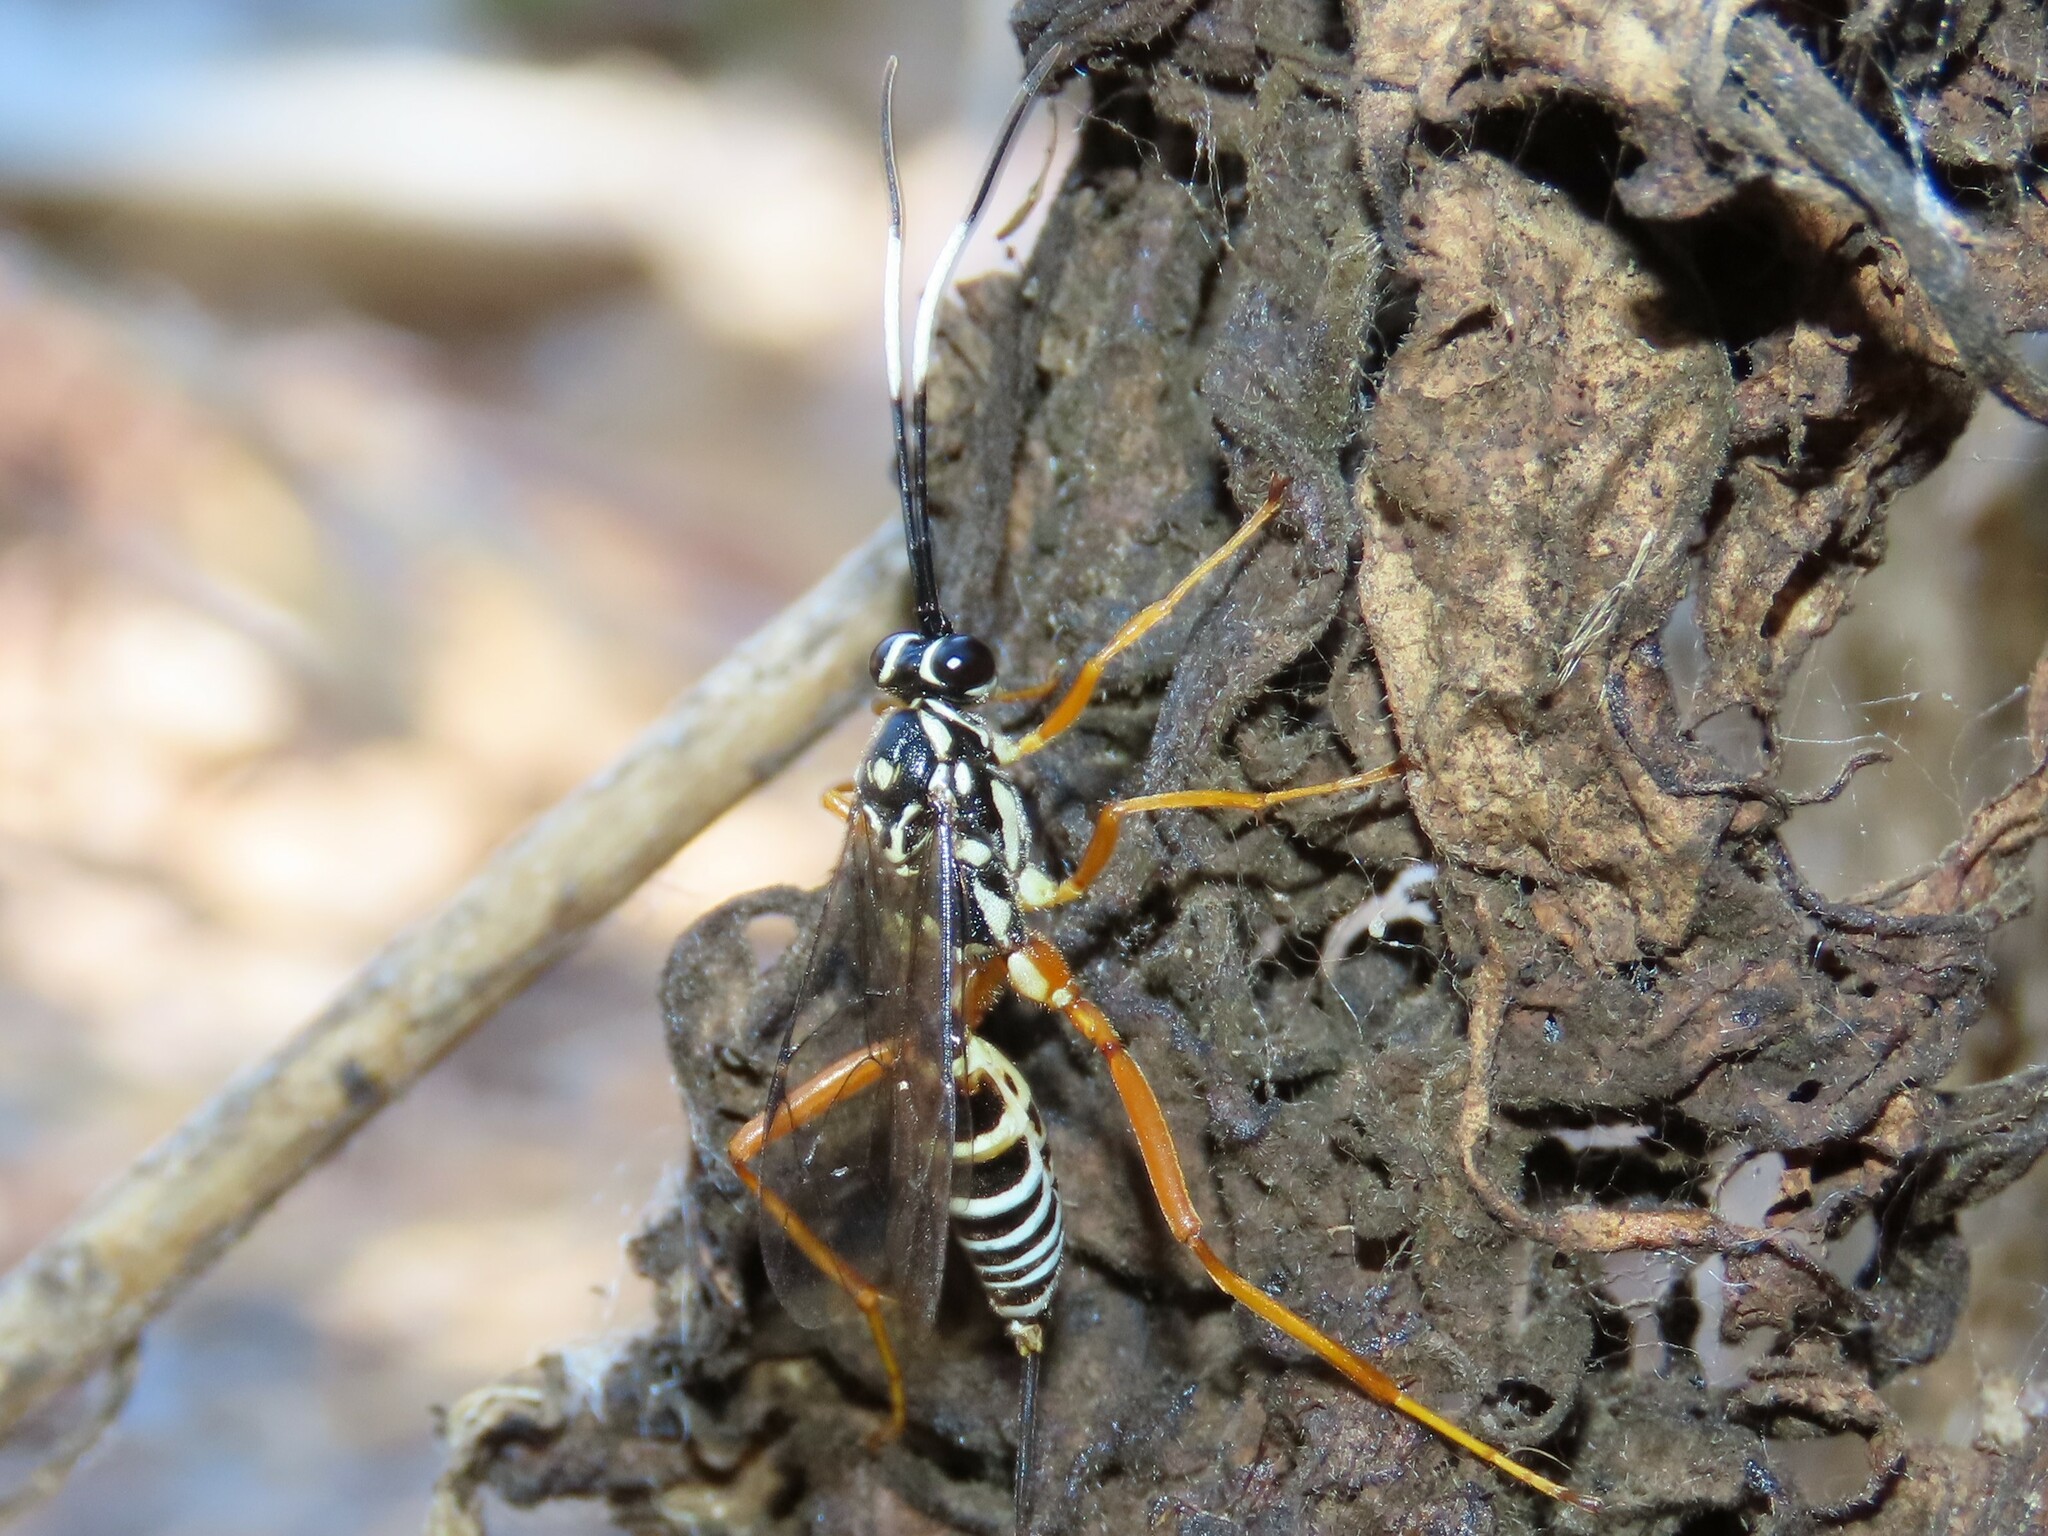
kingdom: Animalia
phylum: Arthropoda
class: Insecta
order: Hymenoptera
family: Ichneumonidae
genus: Cryptanura
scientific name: Cryptanura spinaria
